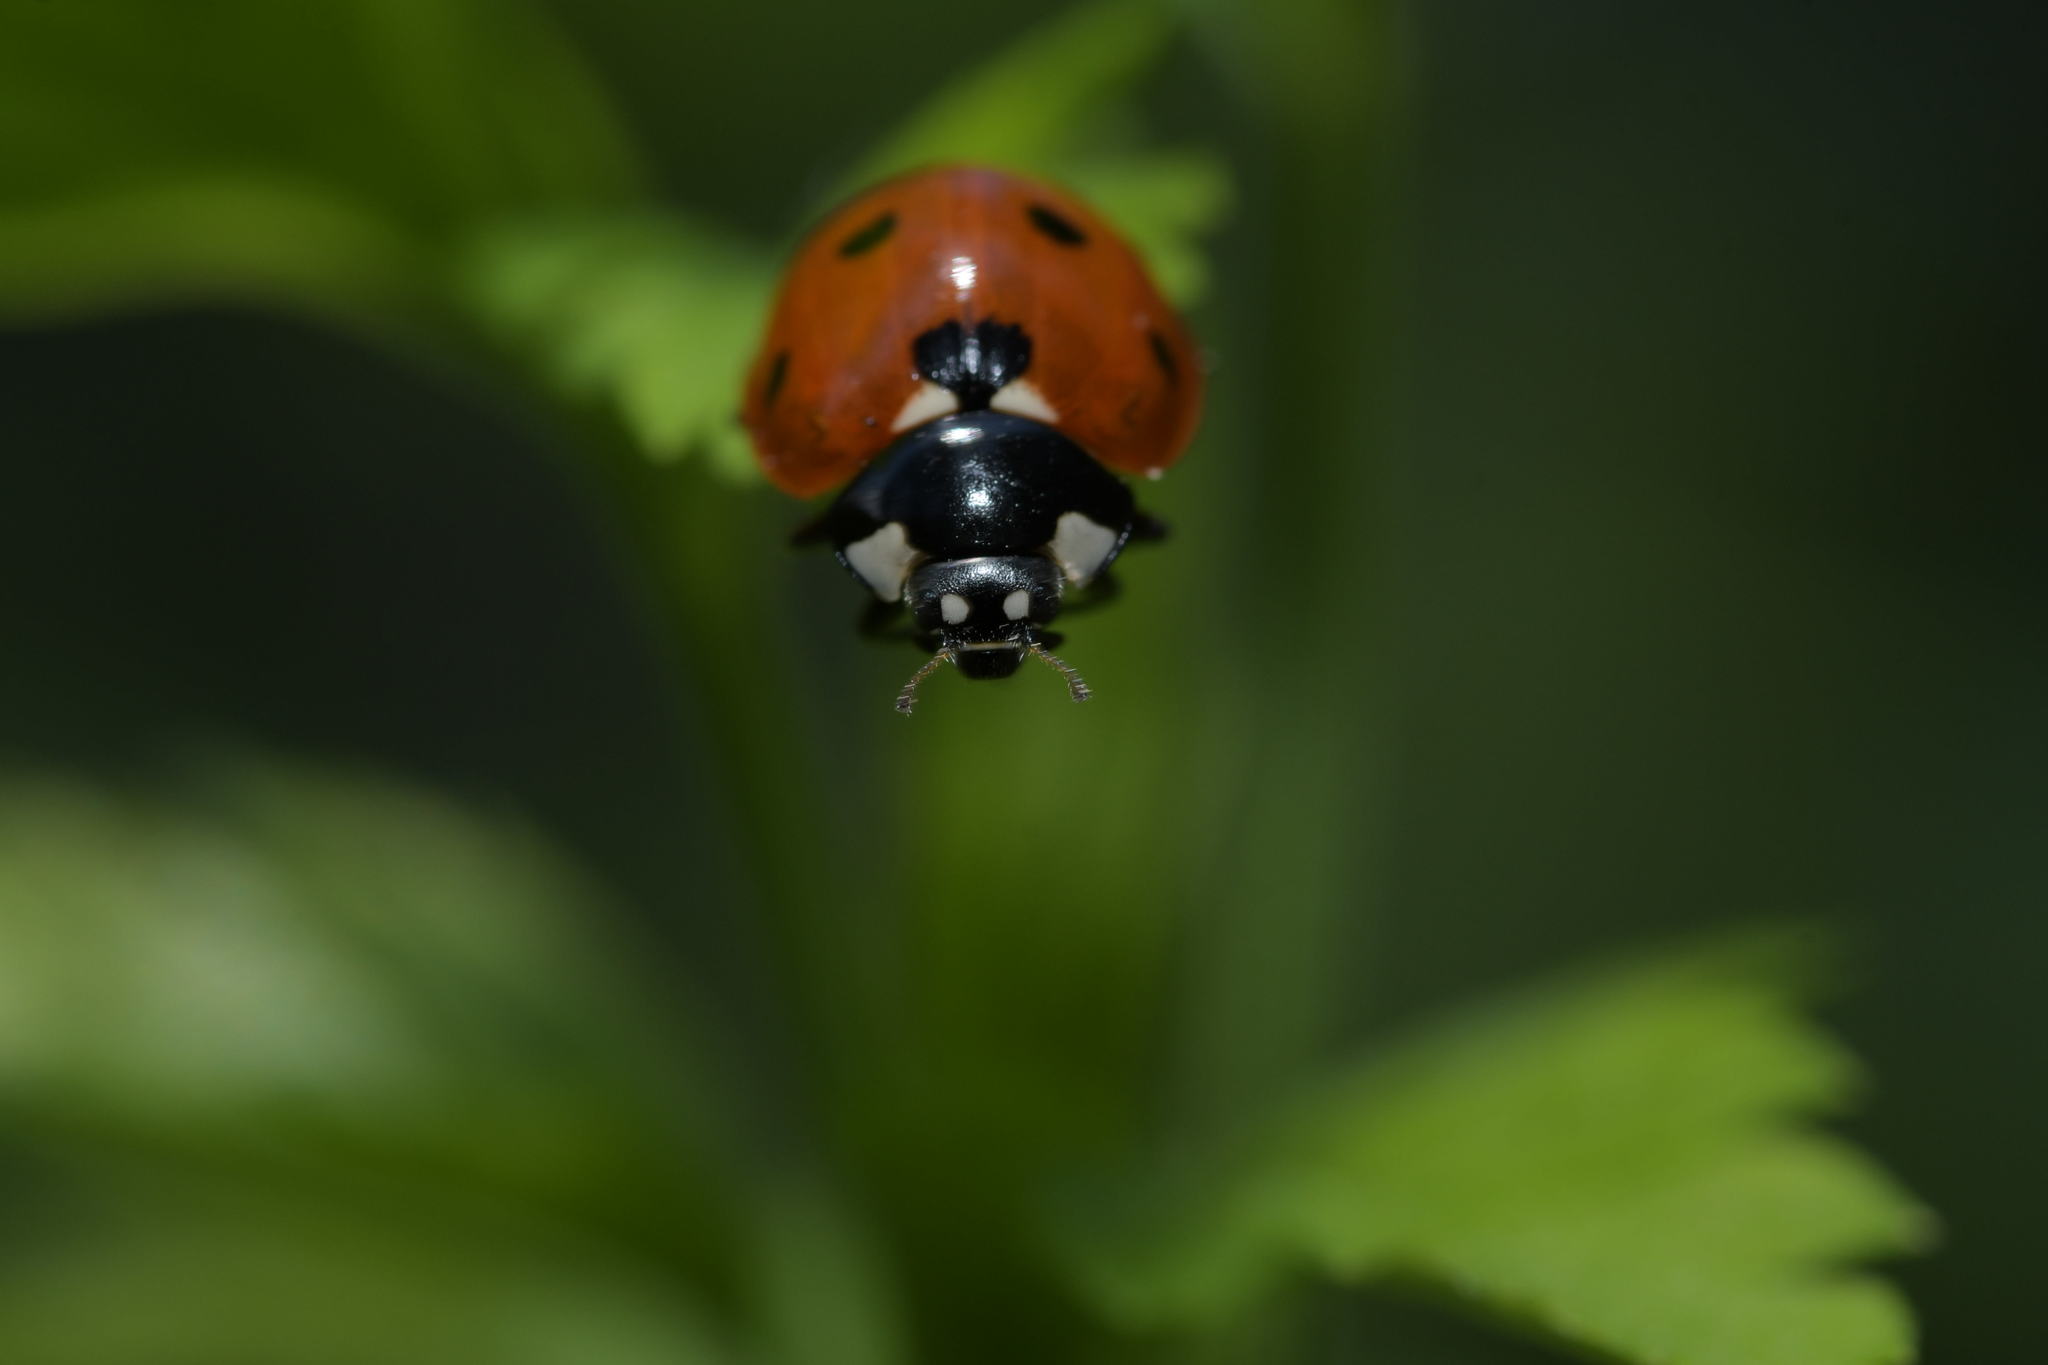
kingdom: Animalia
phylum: Arthropoda
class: Insecta
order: Coleoptera
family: Coccinellidae
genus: Coccinella
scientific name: Coccinella septempunctata
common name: Sevenspotted lady beetle
